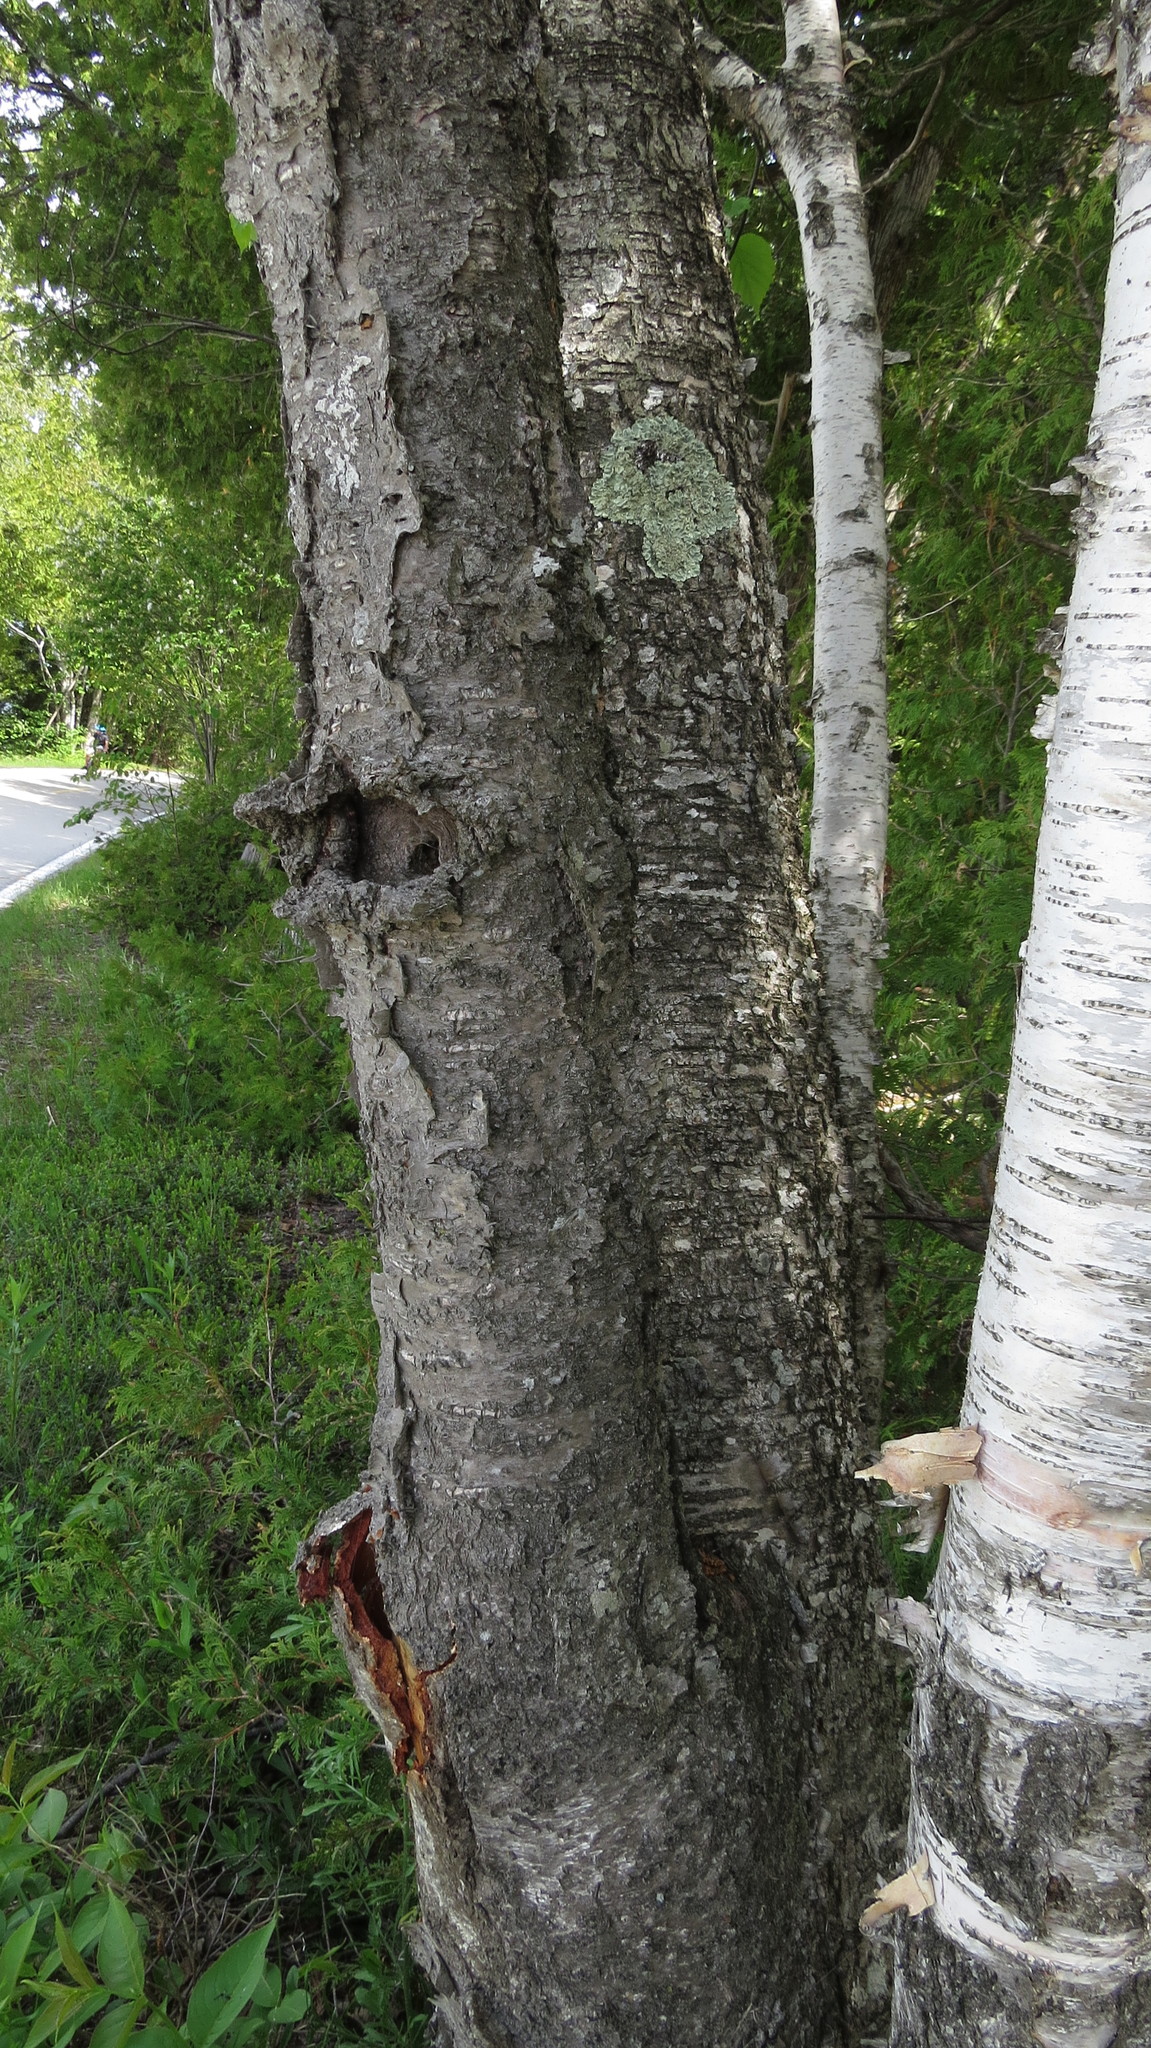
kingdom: Plantae
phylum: Tracheophyta
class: Magnoliopsida
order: Fagales
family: Betulaceae
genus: Betula
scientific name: Betula papyrifera
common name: Paper birch
